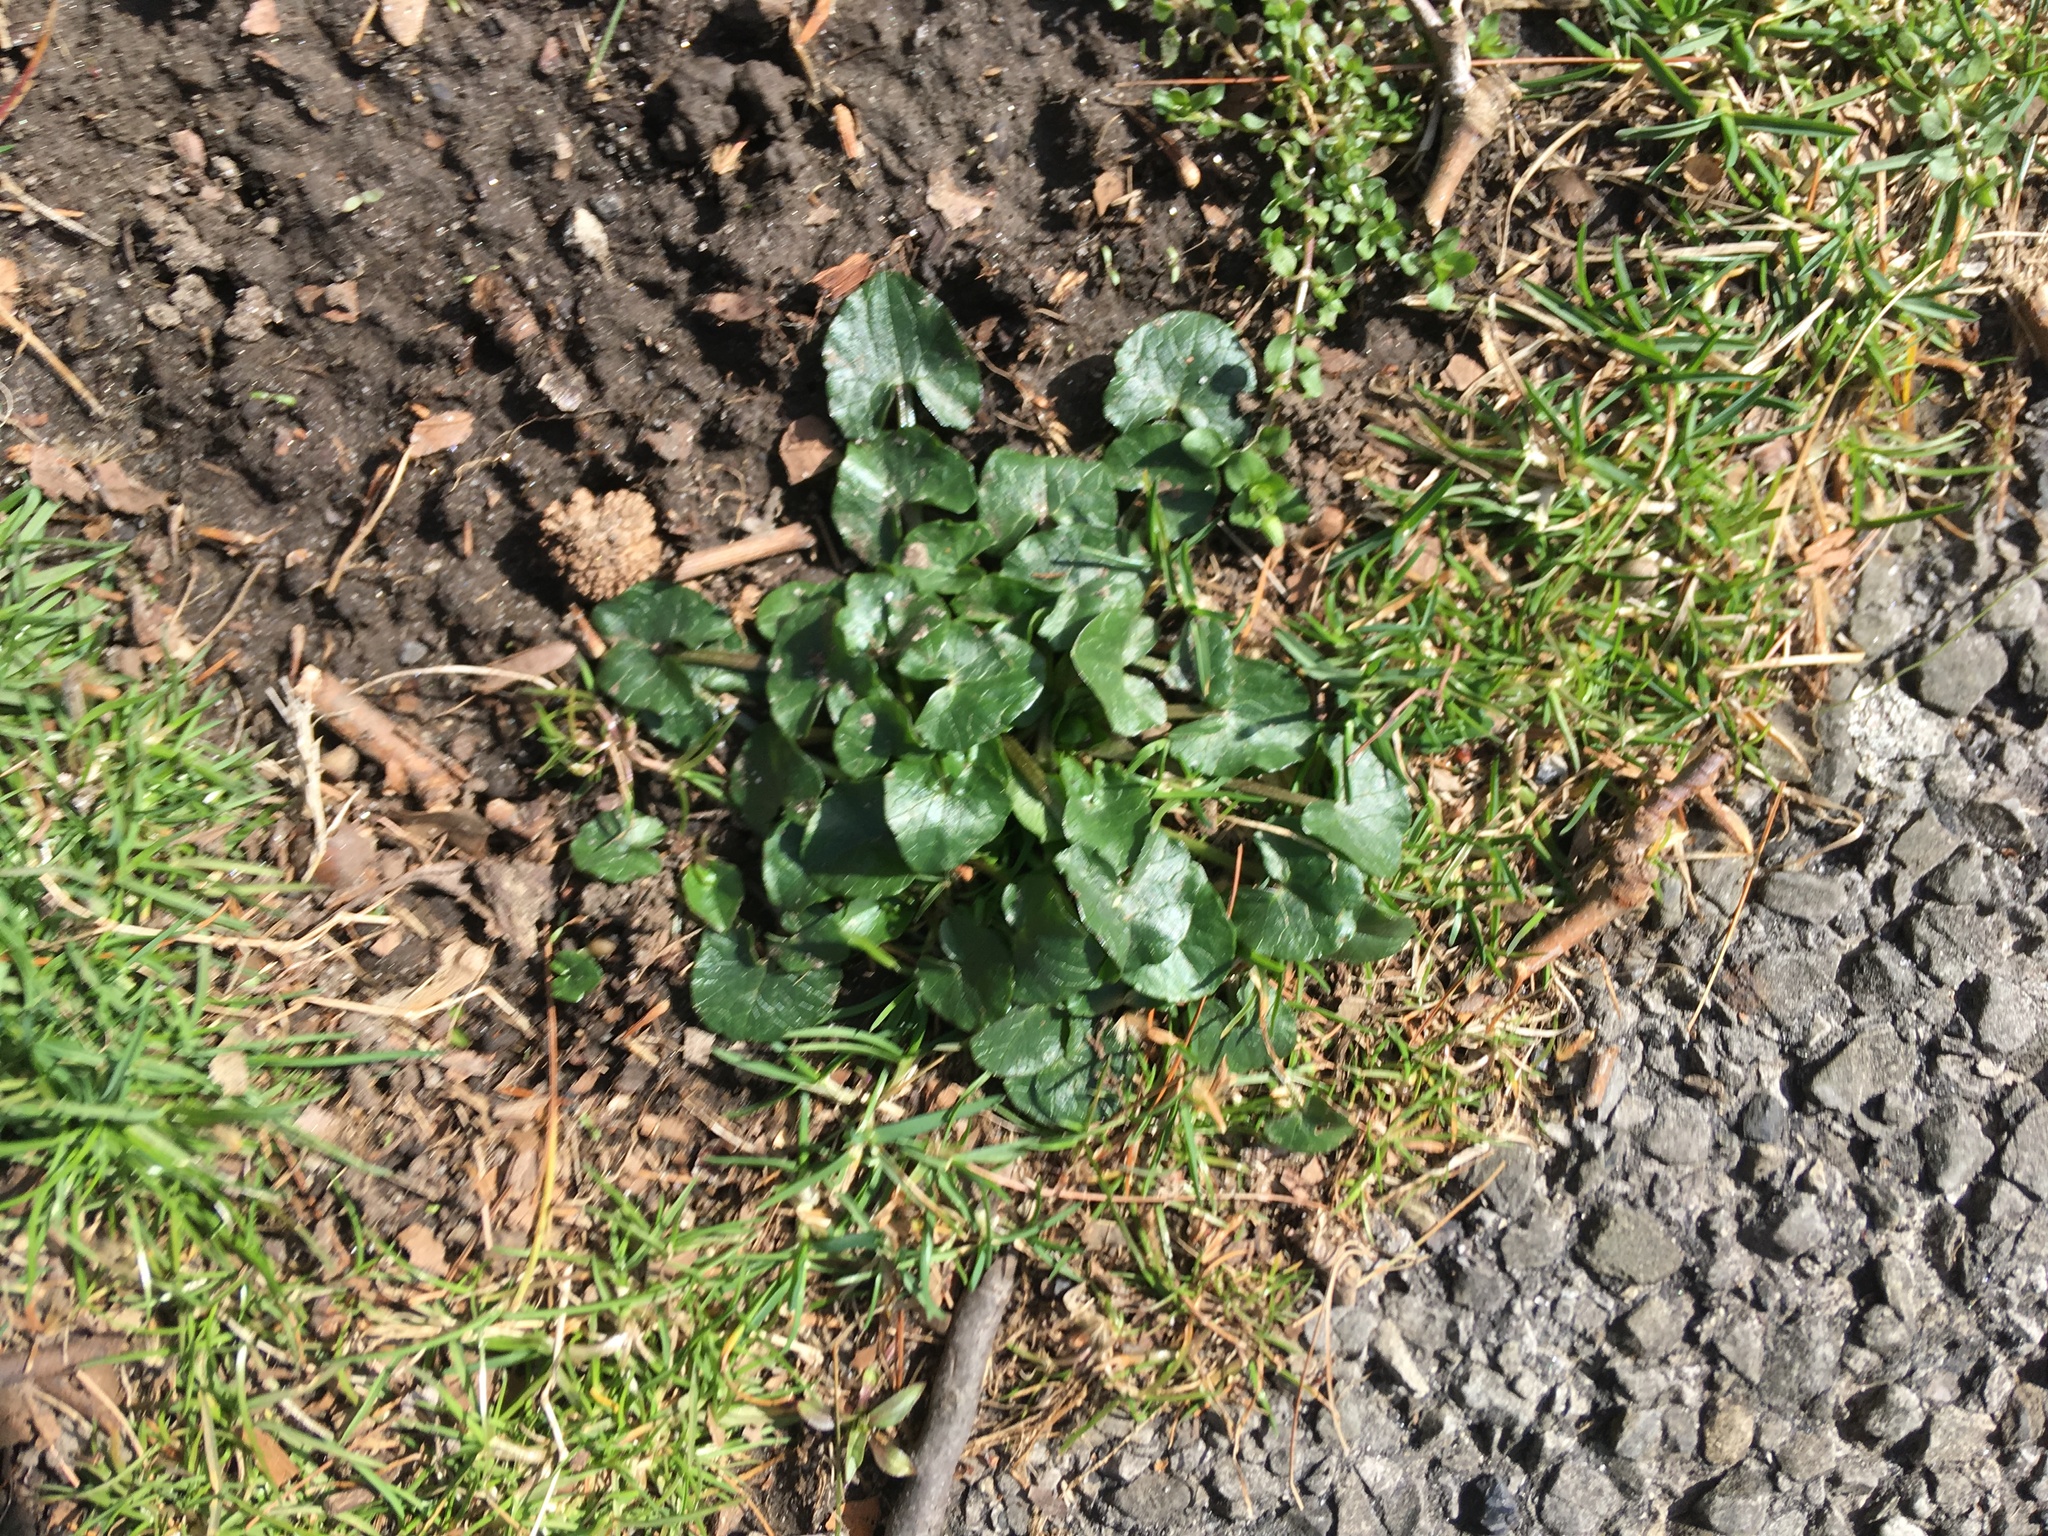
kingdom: Plantae
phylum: Tracheophyta
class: Magnoliopsida
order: Ranunculales
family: Ranunculaceae
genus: Ficaria
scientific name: Ficaria verna
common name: Lesser celandine
